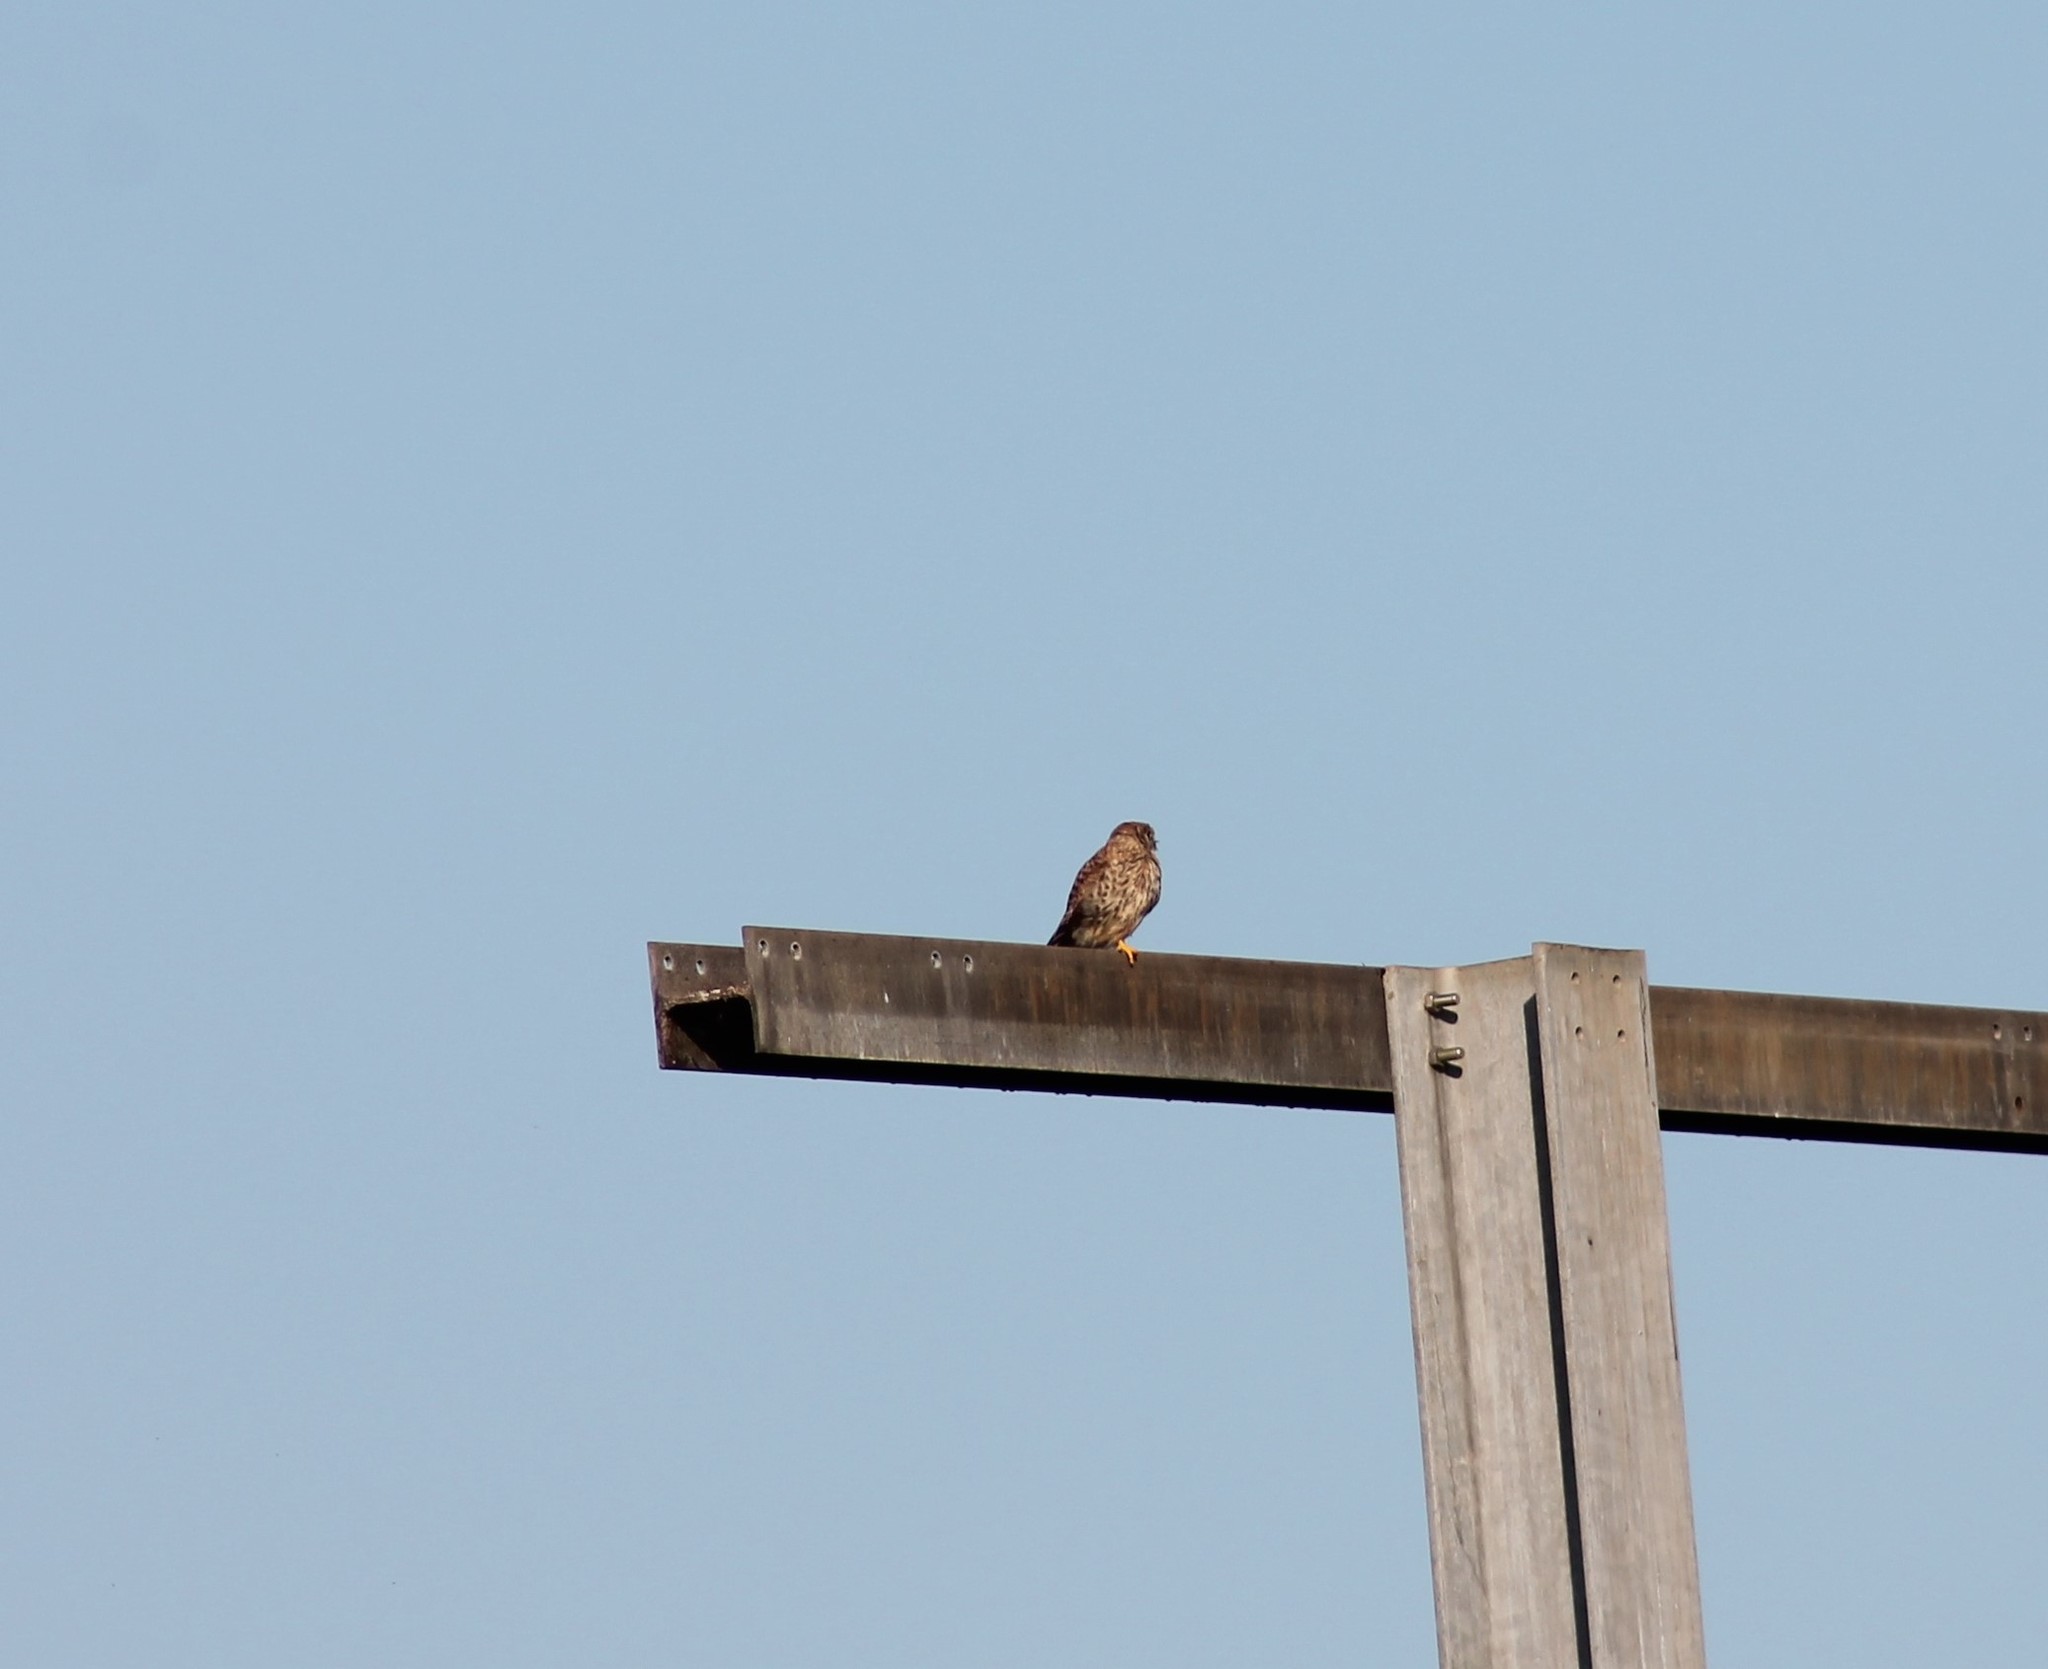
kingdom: Animalia
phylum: Chordata
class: Aves
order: Falconiformes
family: Falconidae
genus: Falco
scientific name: Falco tinnunculus
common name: Common kestrel
